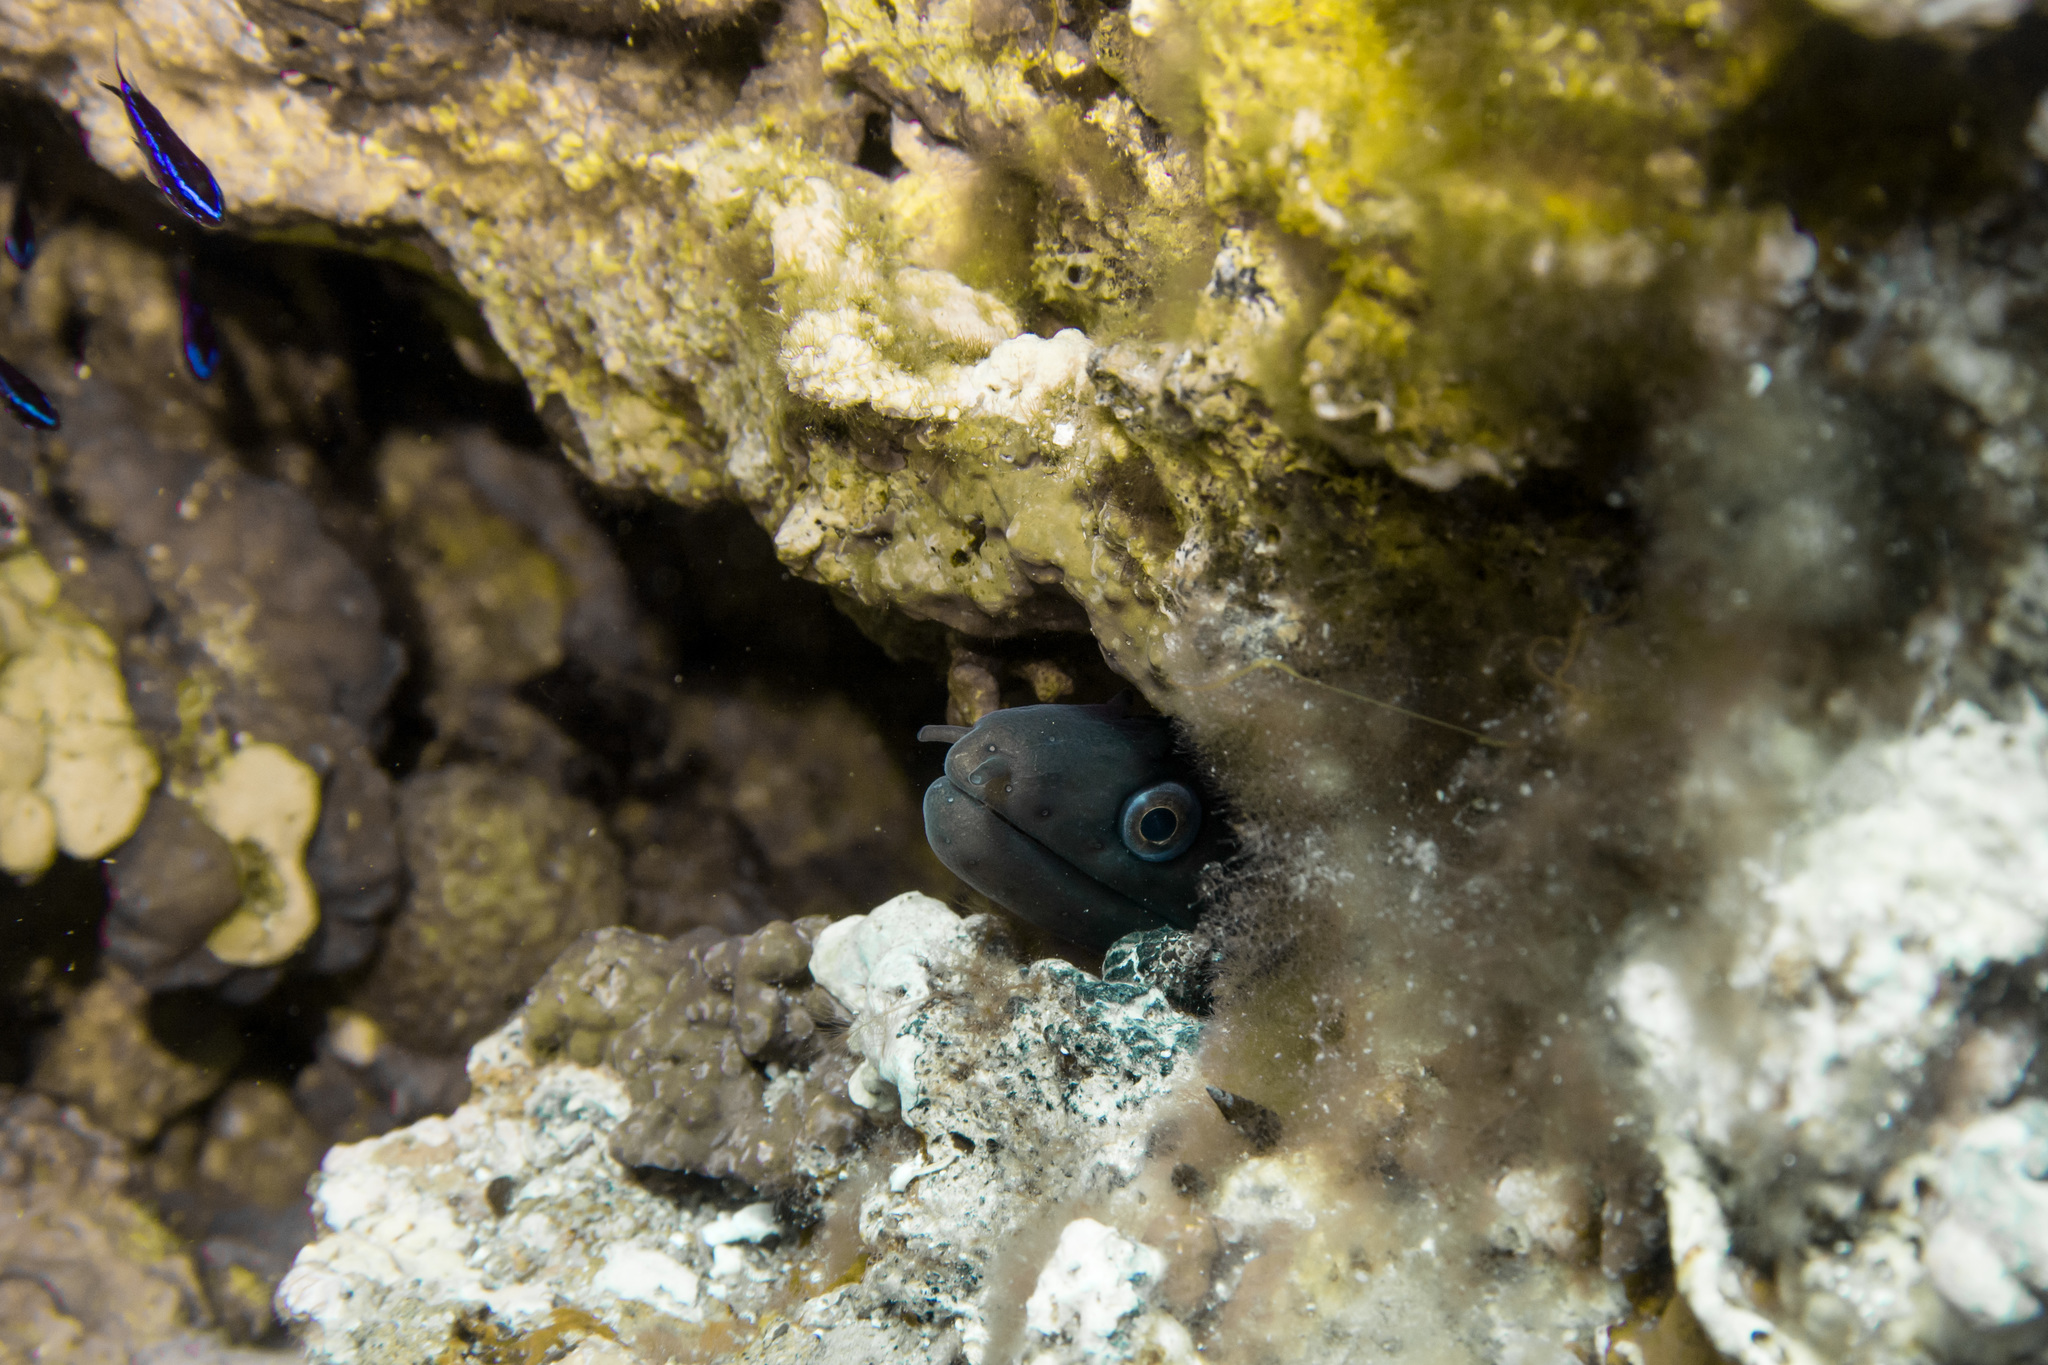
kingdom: Animalia
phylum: Chordata
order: Anguilliformes
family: Muraenidae
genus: Muraena
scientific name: Muraena helena
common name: Mediterranean moray
